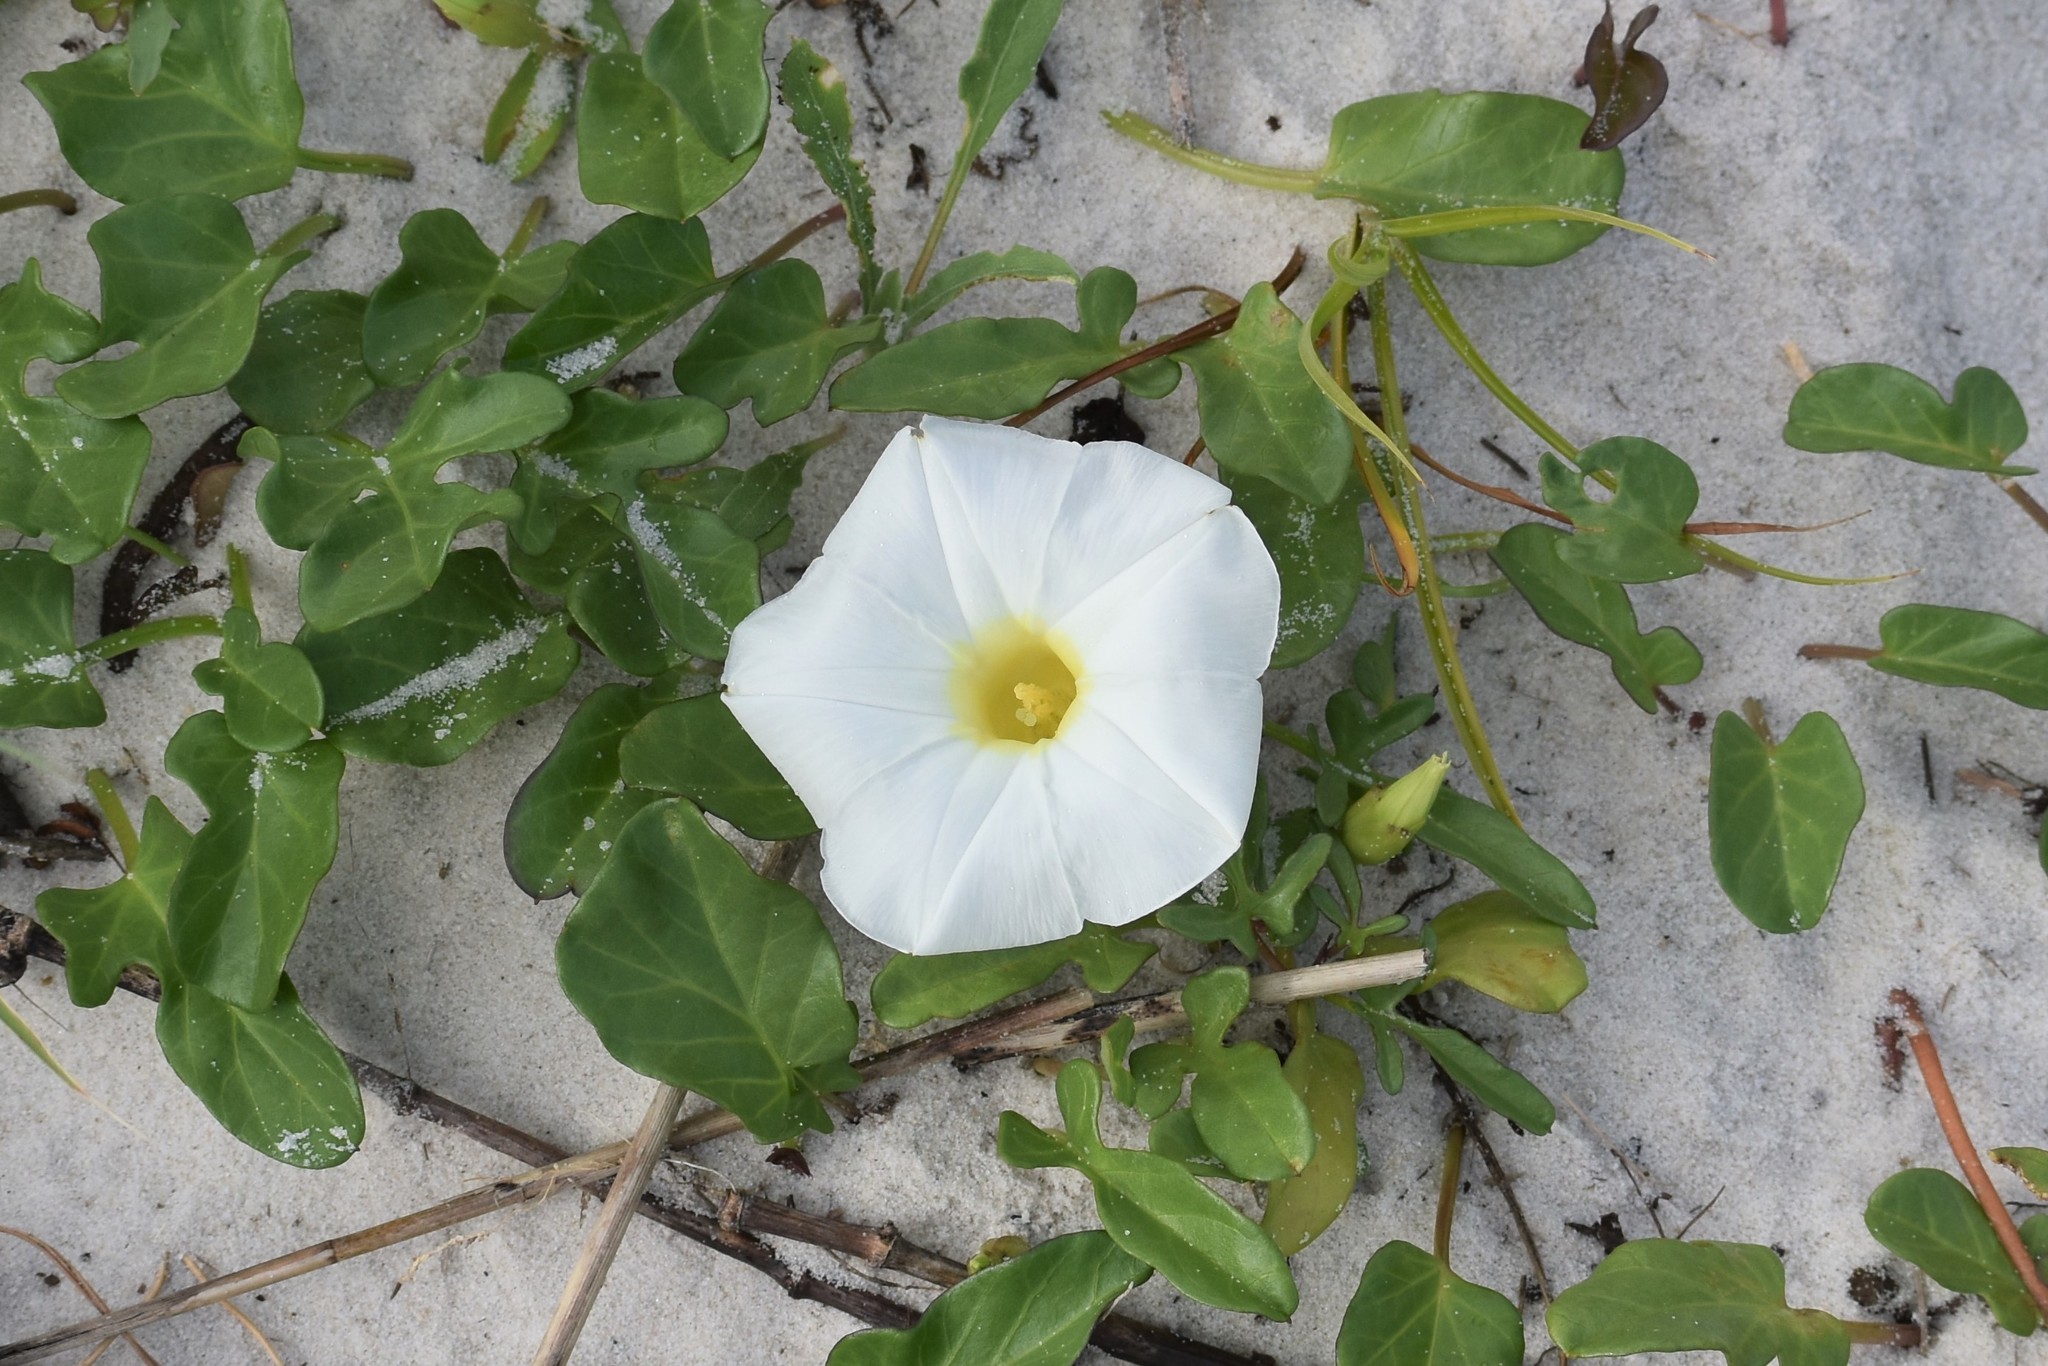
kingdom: Plantae
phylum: Tracheophyta
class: Magnoliopsida
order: Solanales
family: Convolvulaceae
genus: Ipomoea
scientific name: Ipomoea imperati
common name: Fiddle-leaf morning-glory
